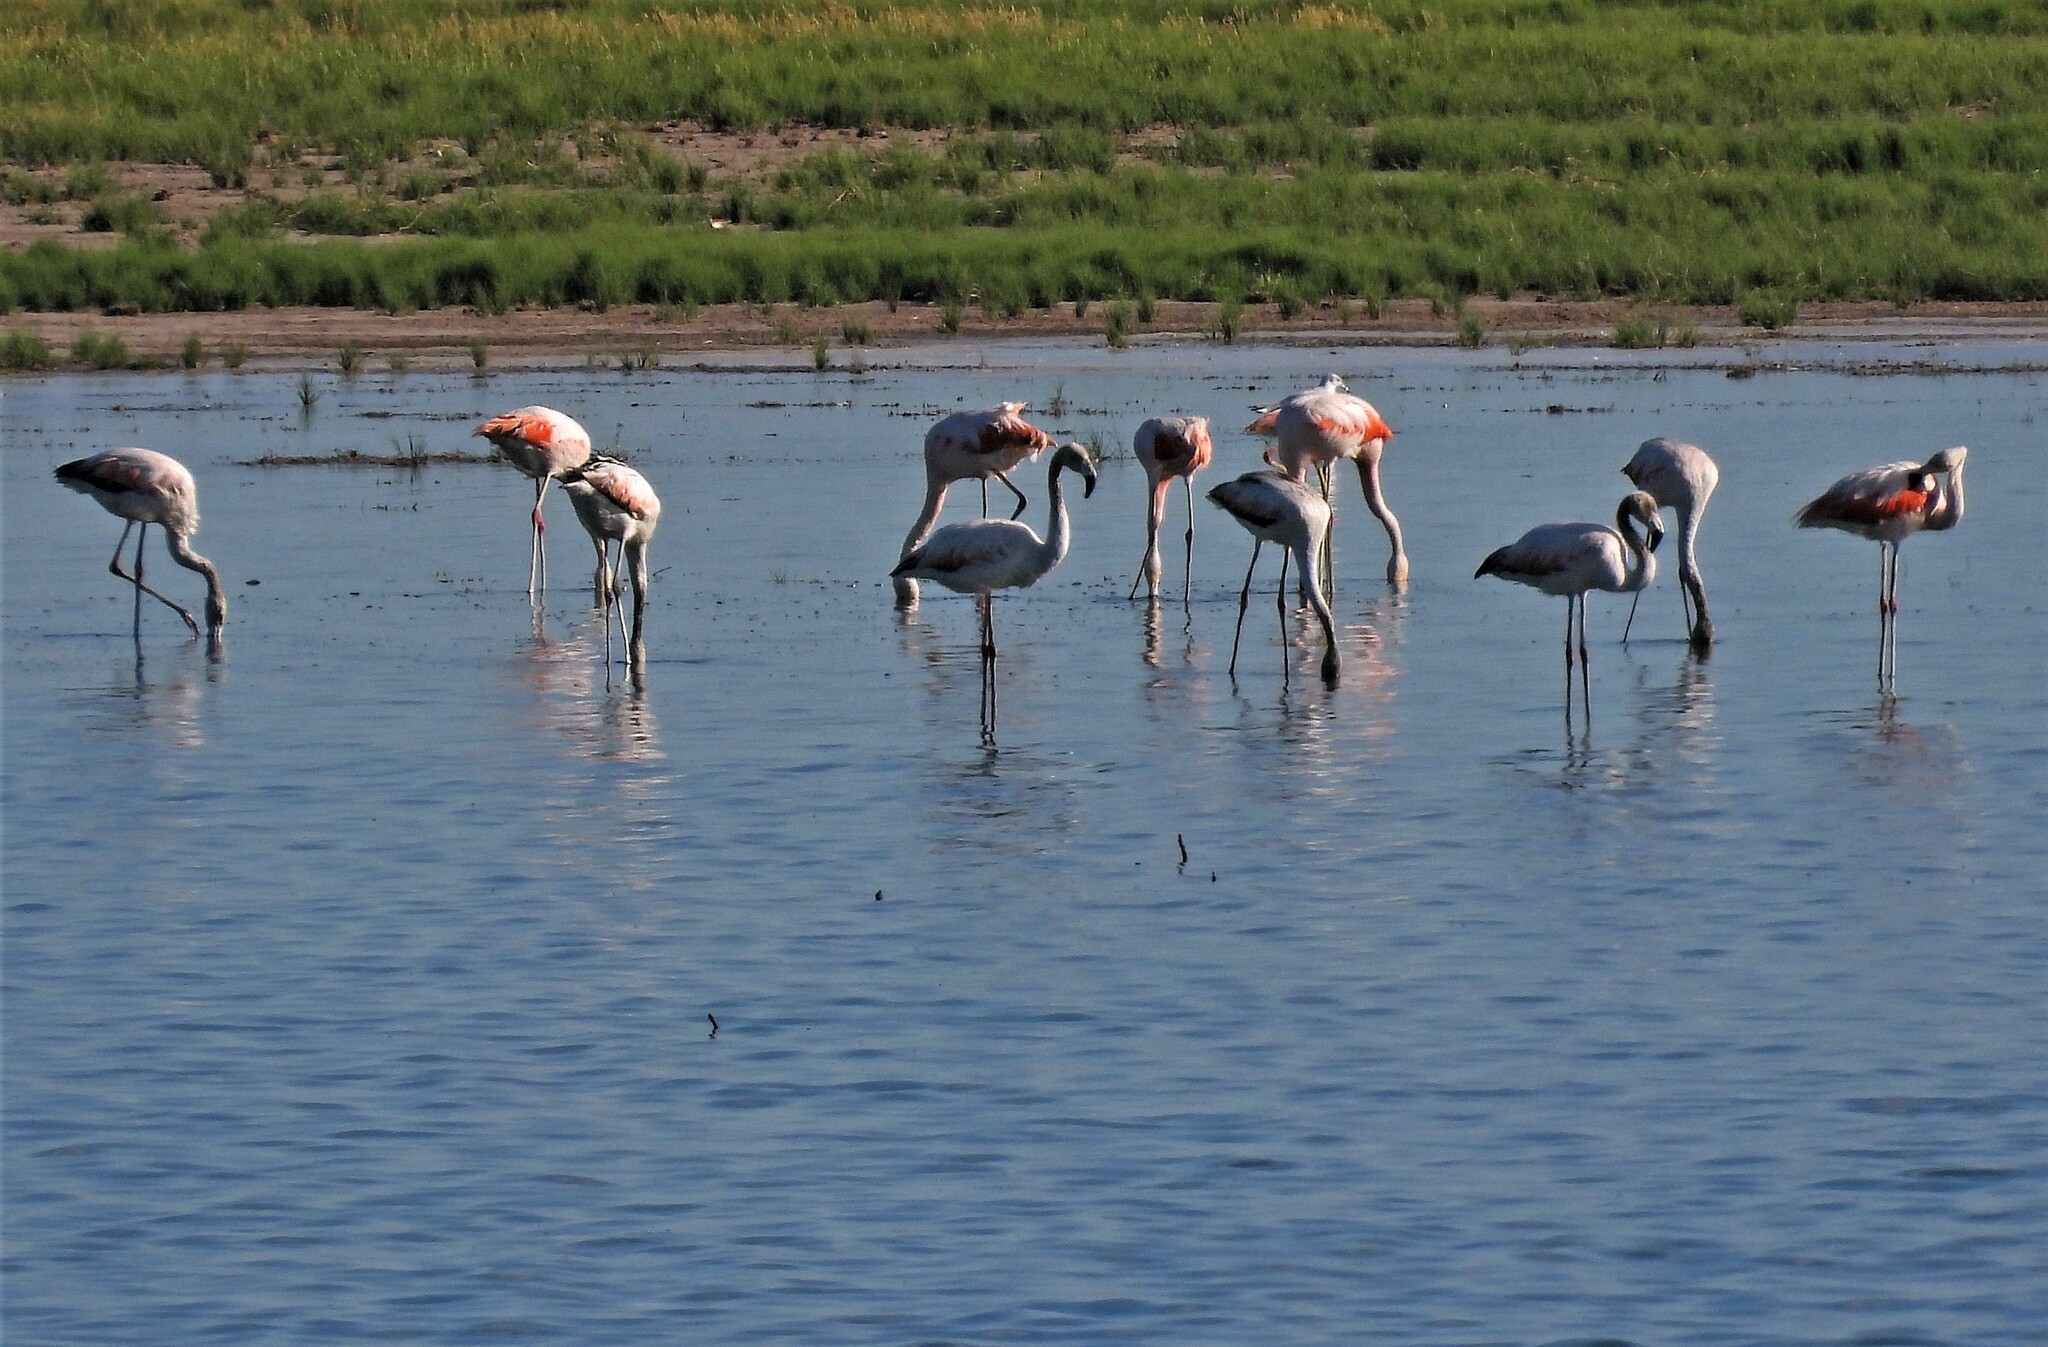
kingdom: Animalia
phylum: Chordata
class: Aves
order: Phoenicopteriformes
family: Phoenicopteridae
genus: Phoenicopterus
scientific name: Phoenicopterus chilensis
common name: Chilean flamingo
